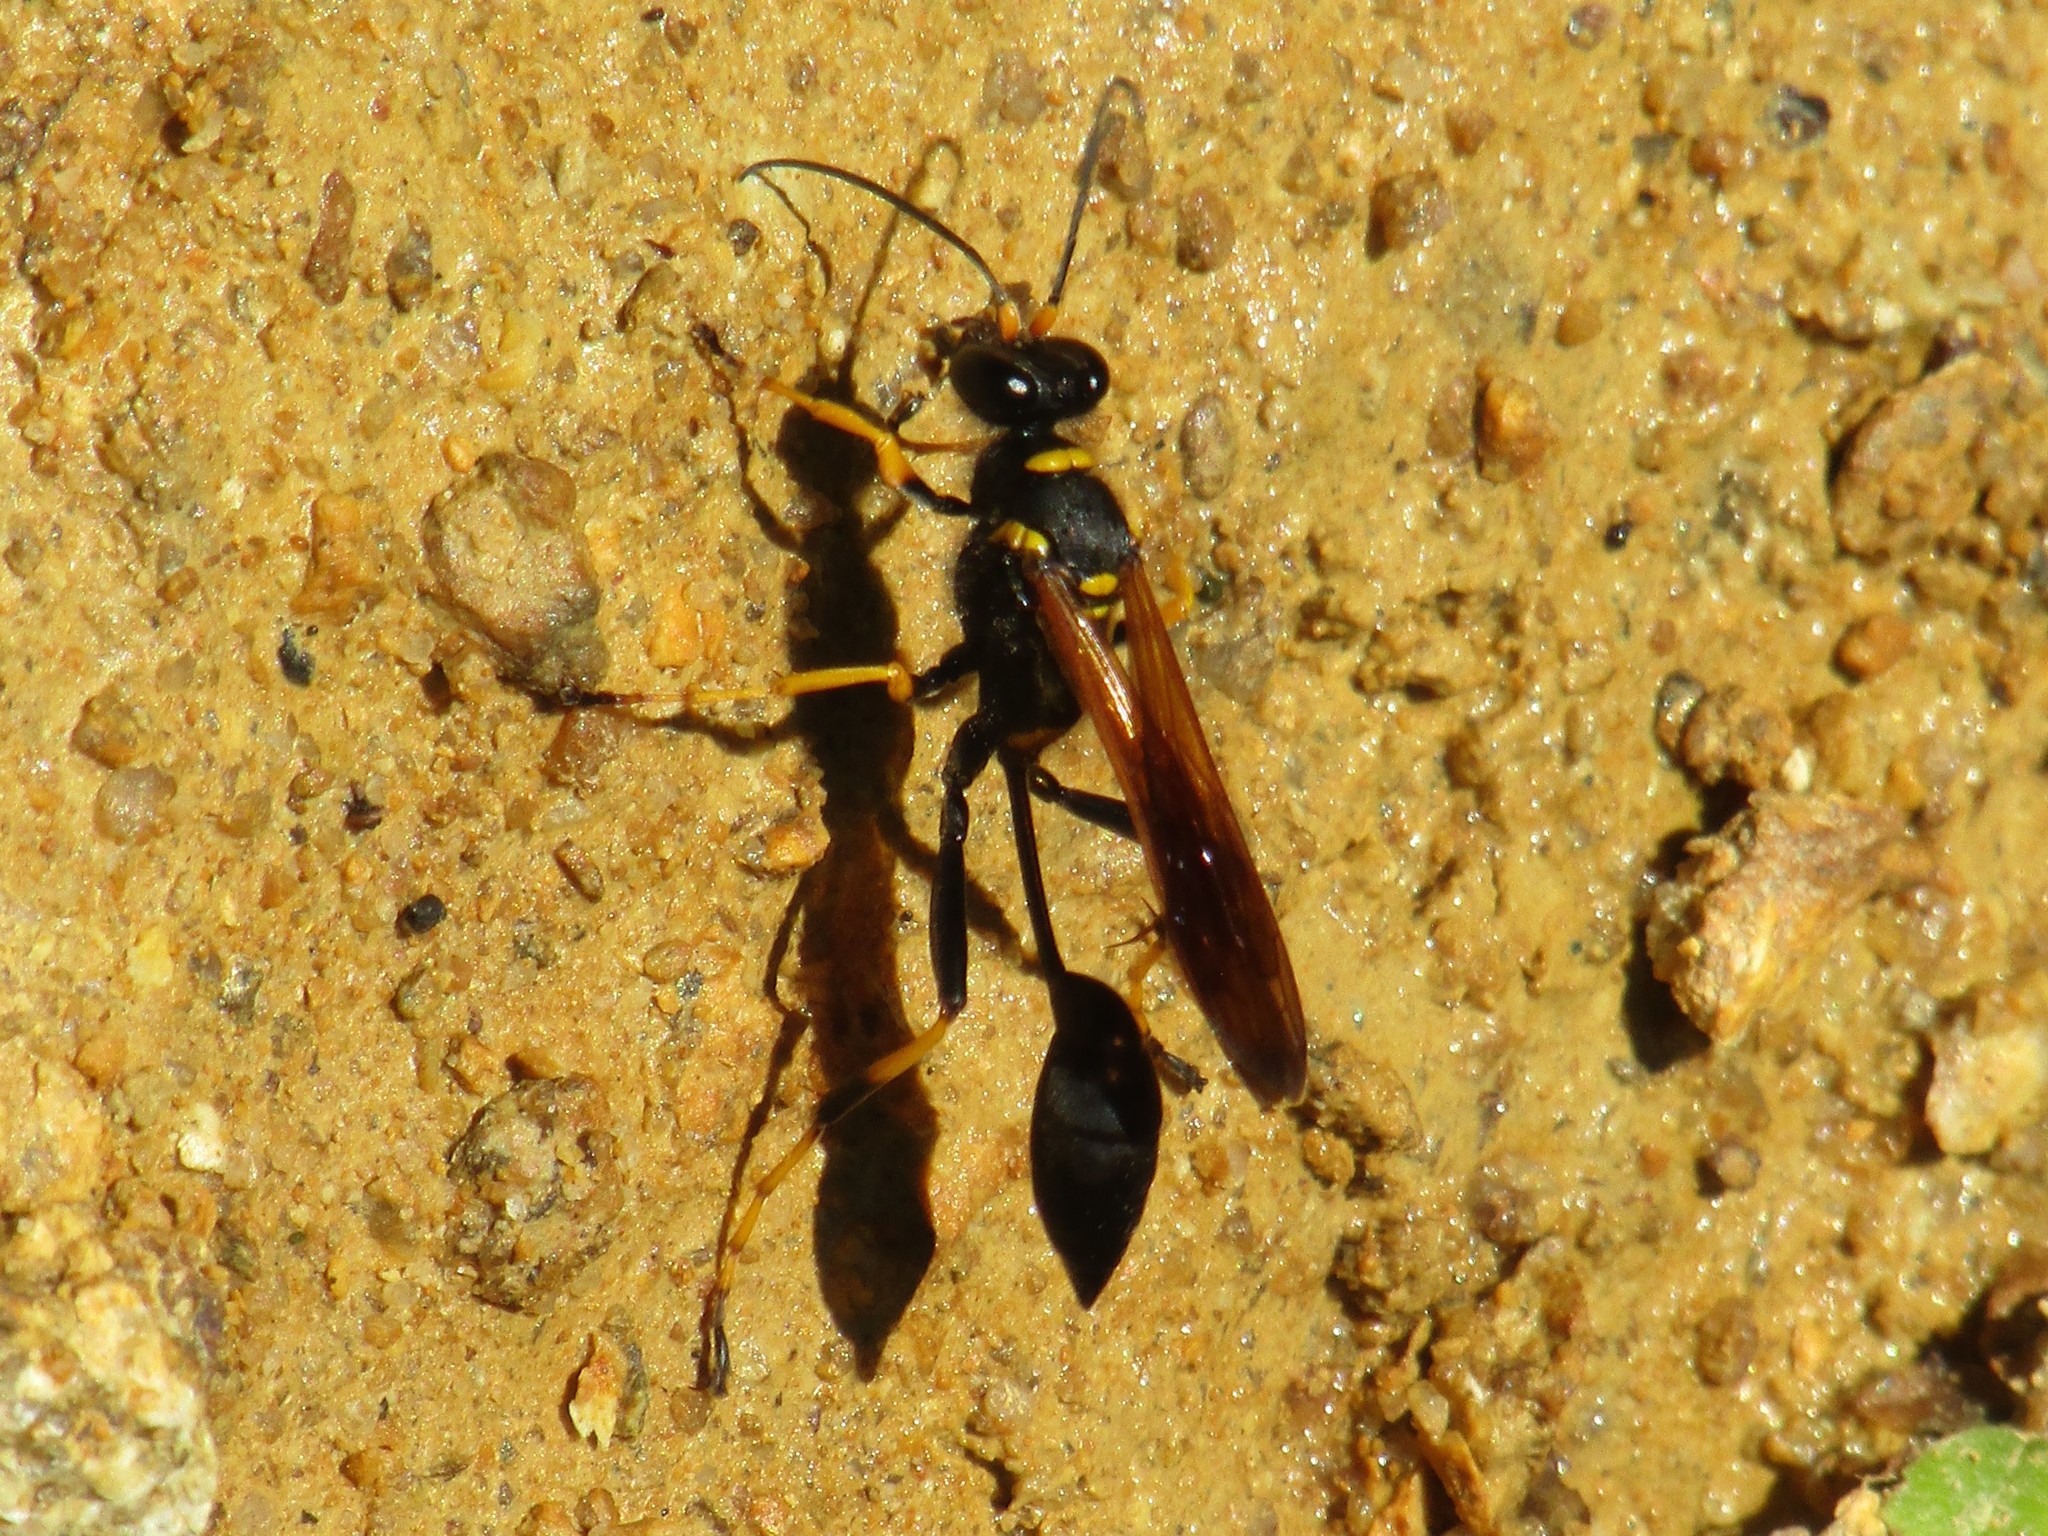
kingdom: Animalia
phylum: Arthropoda
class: Insecta
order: Hymenoptera
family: Sphecidae
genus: Sceliphron
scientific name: Sceliphron caementarium
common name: Mud dauber
